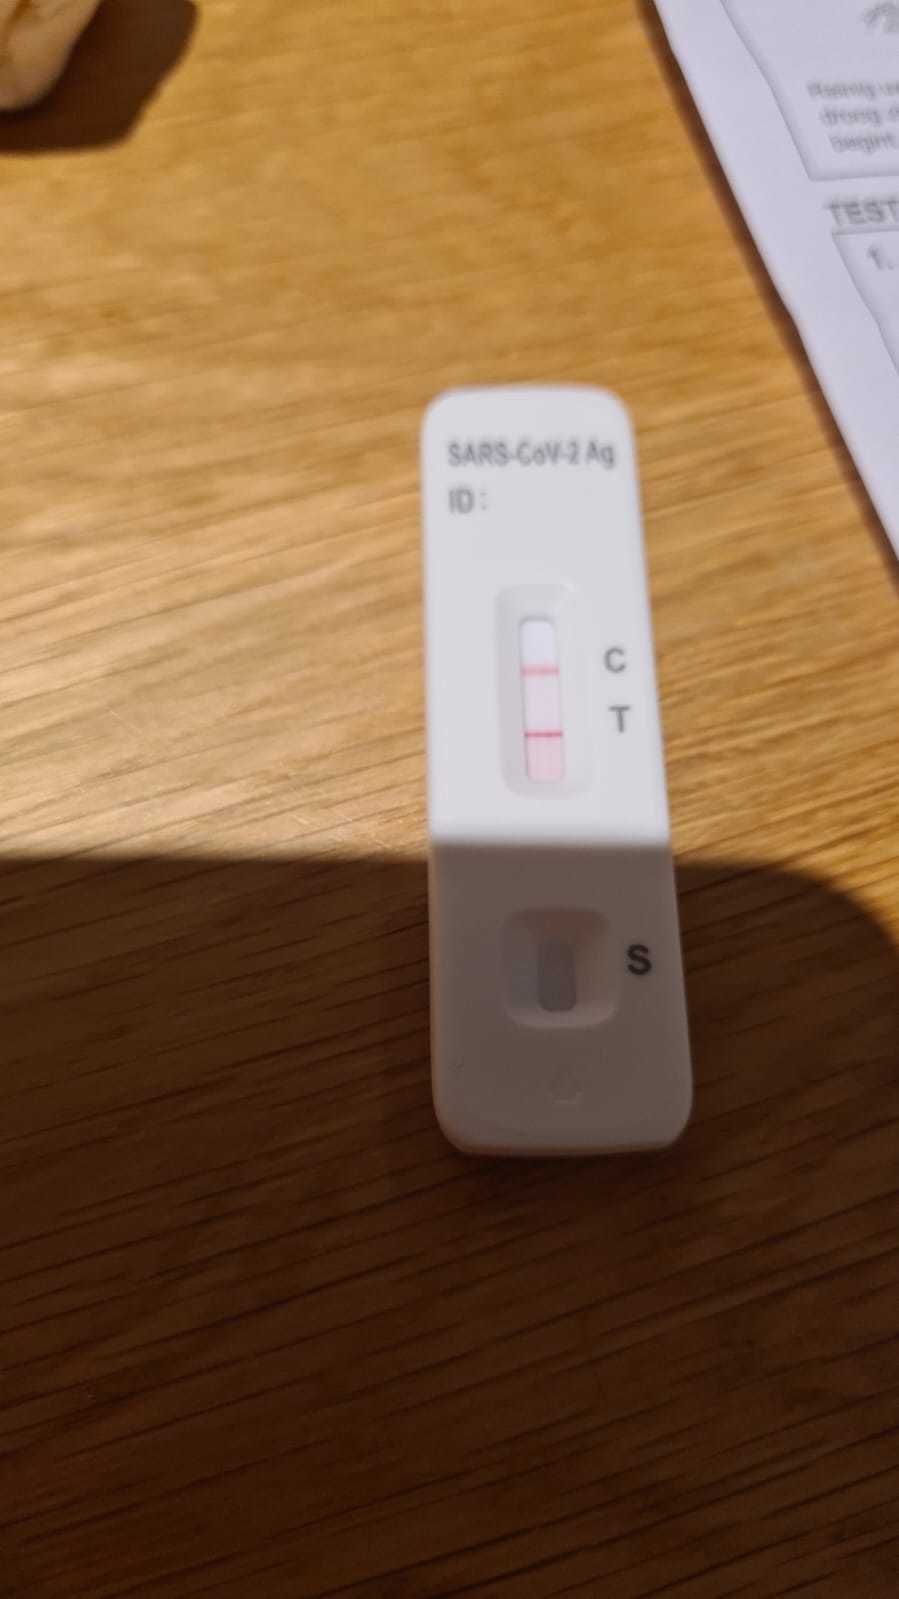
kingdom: Viruses
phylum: Pisuviricota
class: Pisoniviricetes
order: Nidovirales
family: Coronaviridae
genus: Betacoronavirus
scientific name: Betacoronavirus
